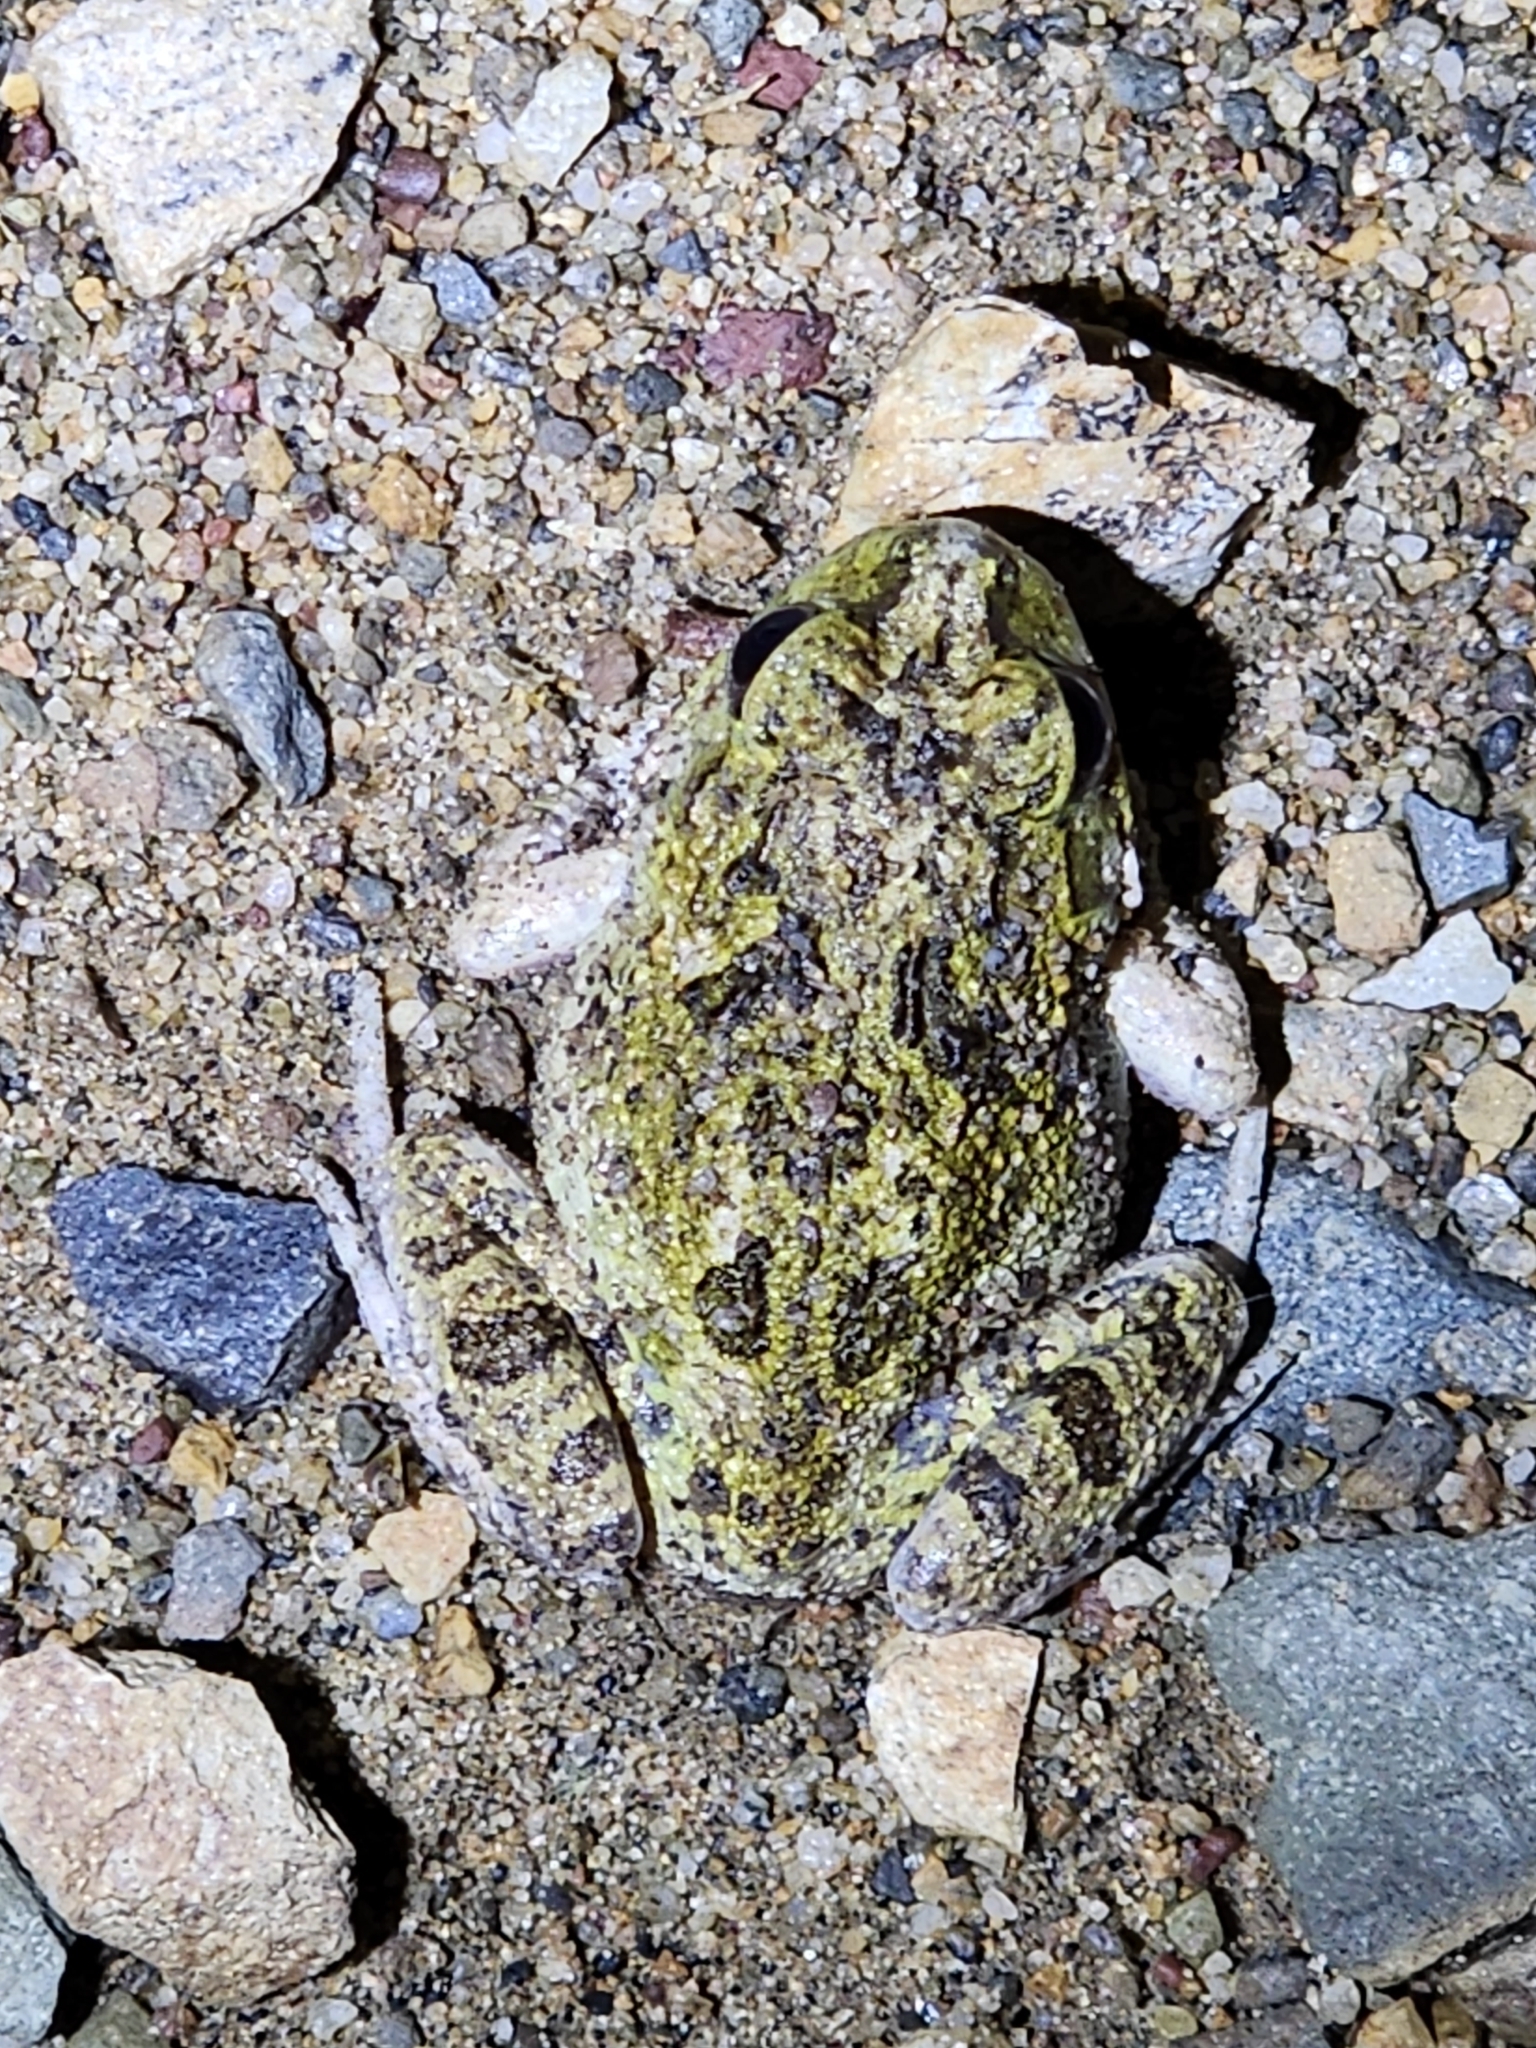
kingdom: Animalia
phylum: Chordata
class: Amphibia
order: Anura
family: Limnodynastidae
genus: Platyplectrum
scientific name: Platyplectrum ornatum
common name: Ornate burrowing frog
